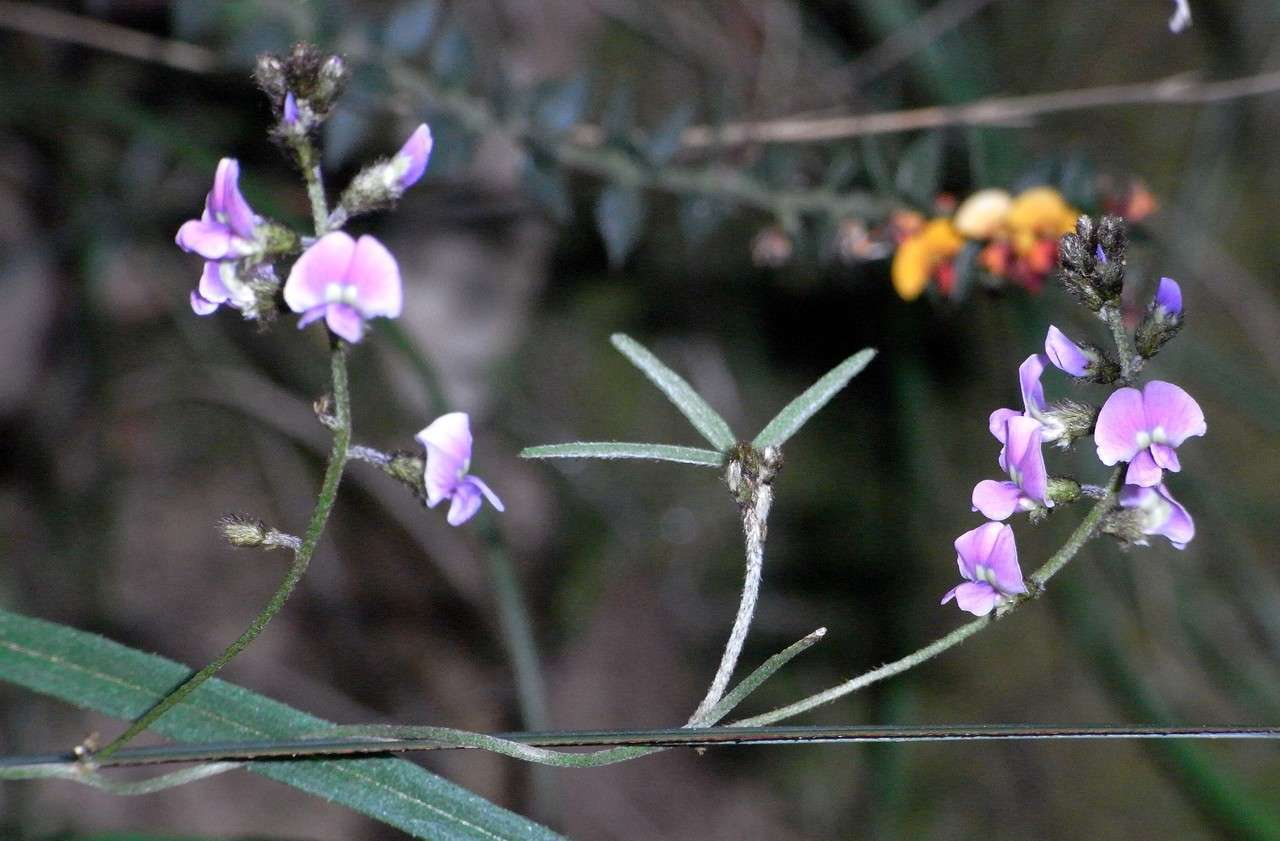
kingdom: Plantae
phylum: Tracheophyta
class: Magnoliopsida
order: Fabales
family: Fabaceae
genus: Glycine
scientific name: Glycine clandestina
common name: Twining glycine
